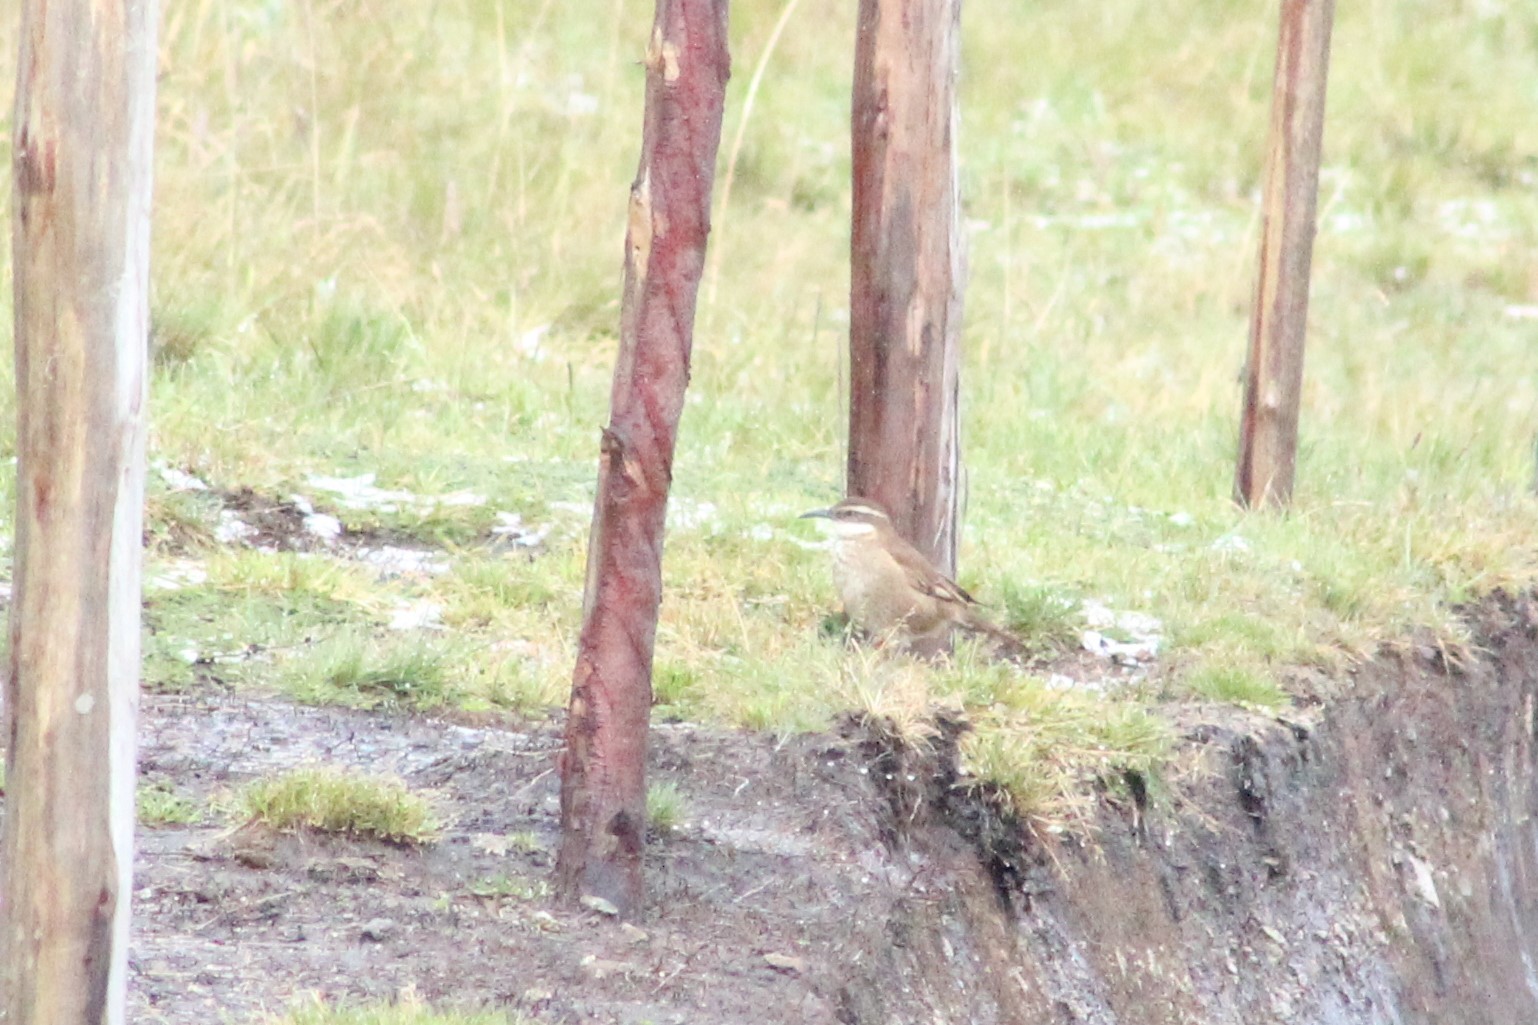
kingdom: Animalia
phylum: Chordata
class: Aves
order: Passeriformes
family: Furnariidae
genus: Cinclodes
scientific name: Cinclodes excelsior
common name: Stout-billed cinclodes
